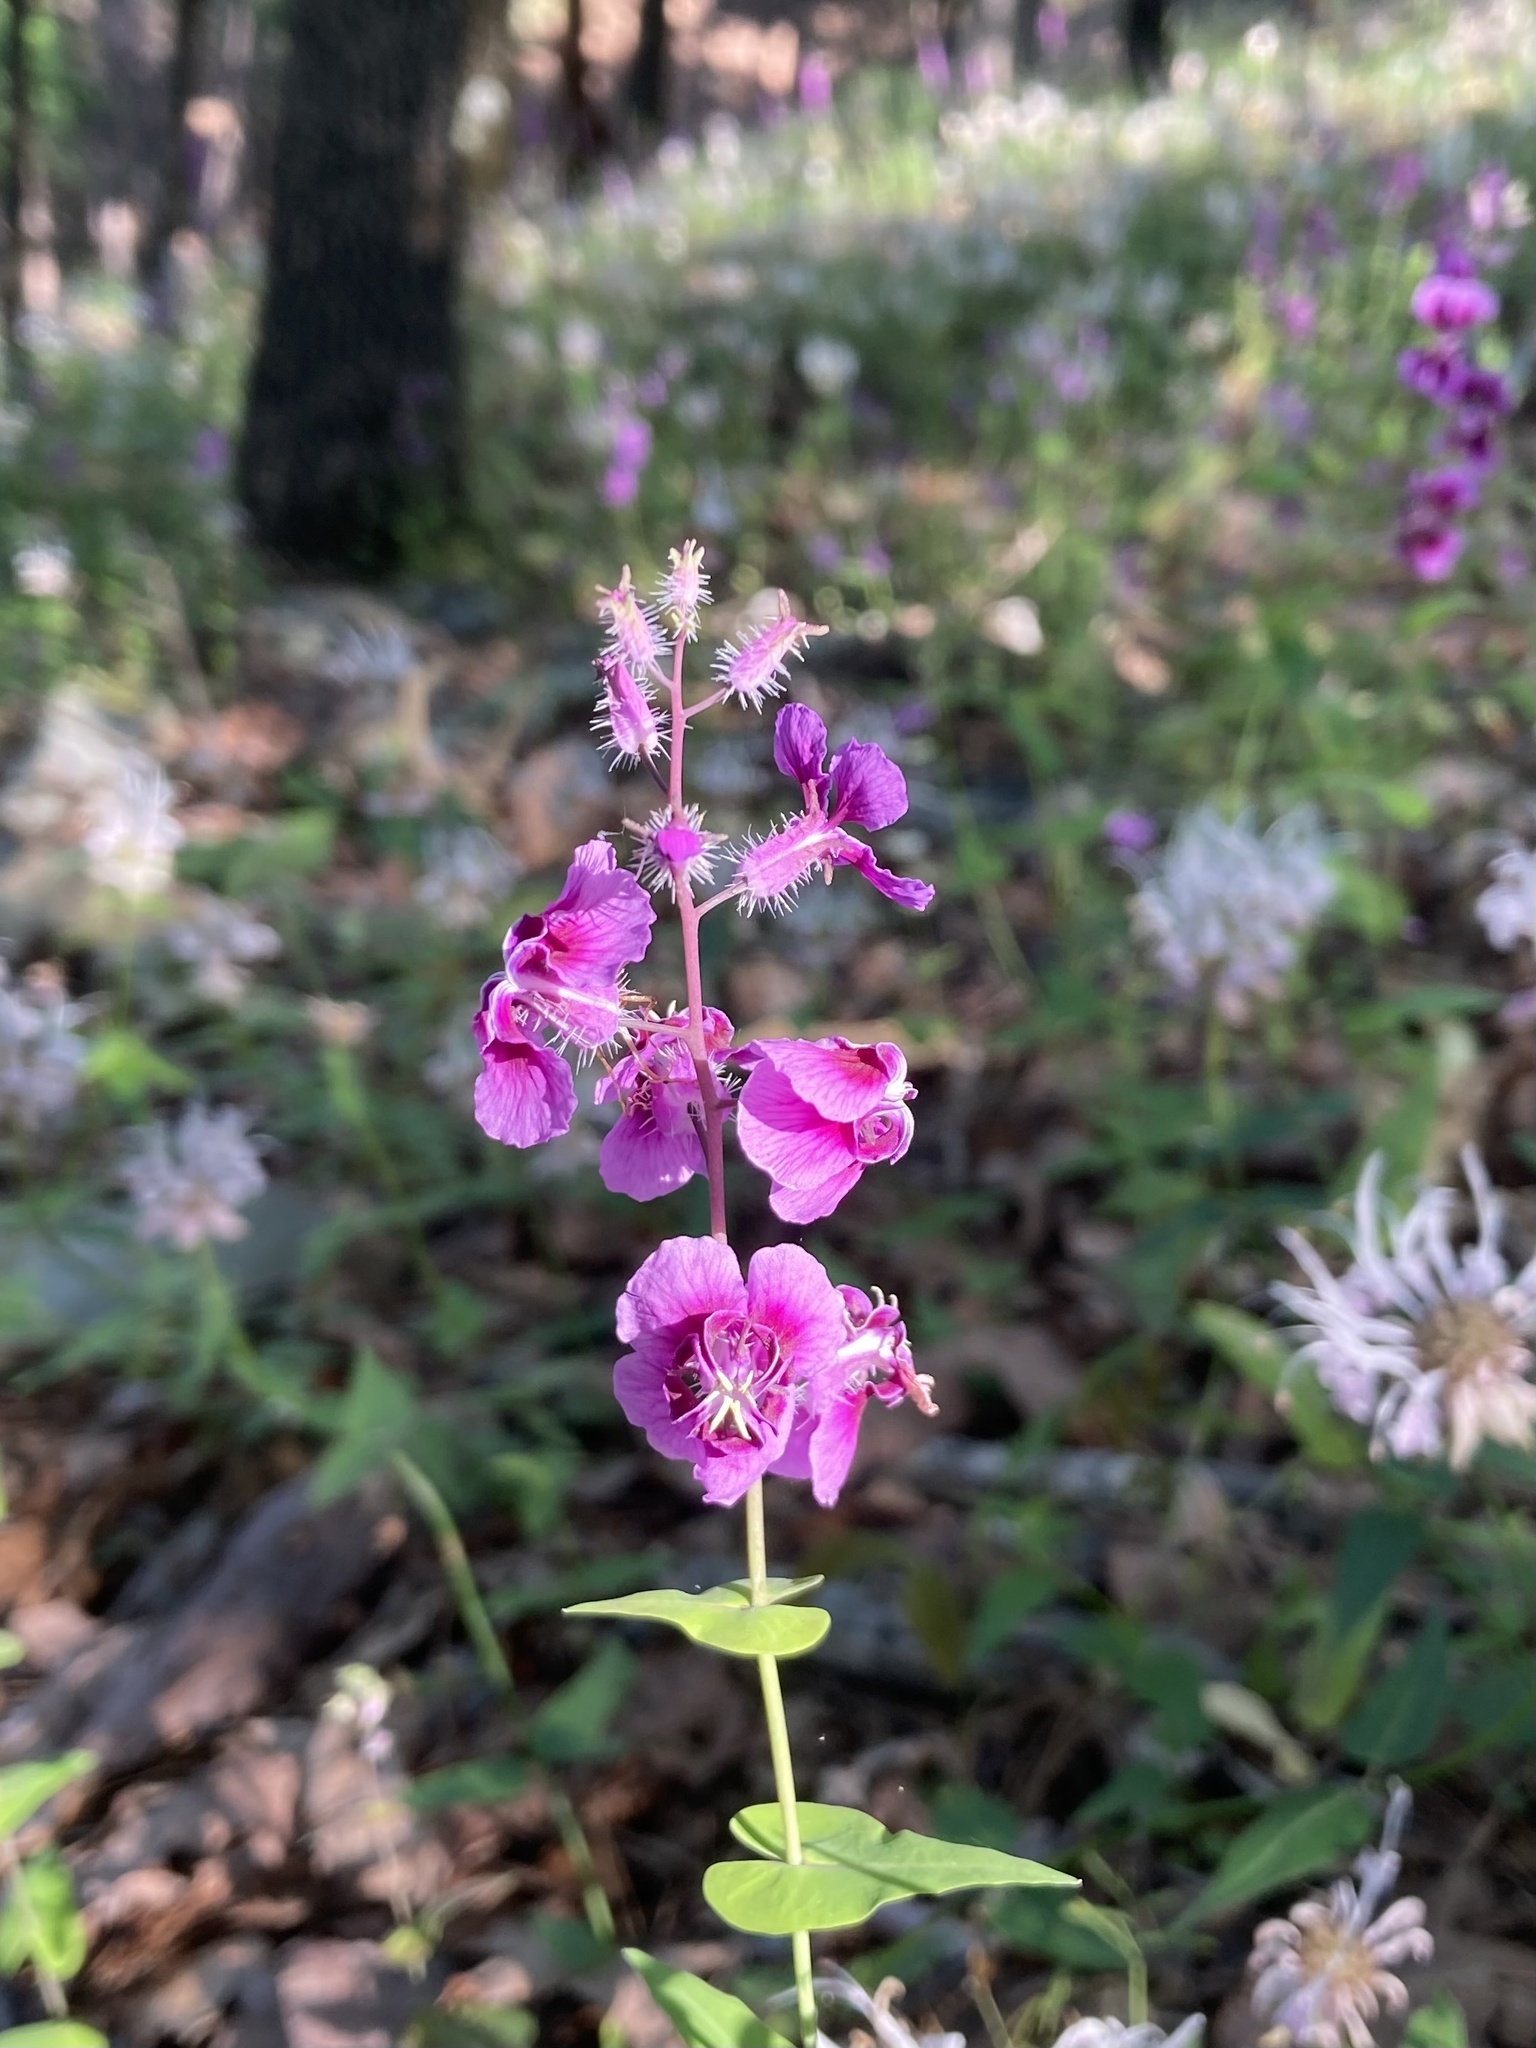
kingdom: Plantae
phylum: Tracheophyta
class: Magnoliopsida
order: Brassicales
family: Brassicaceae
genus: Streptanthus
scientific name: Streptanthus squamiformis
